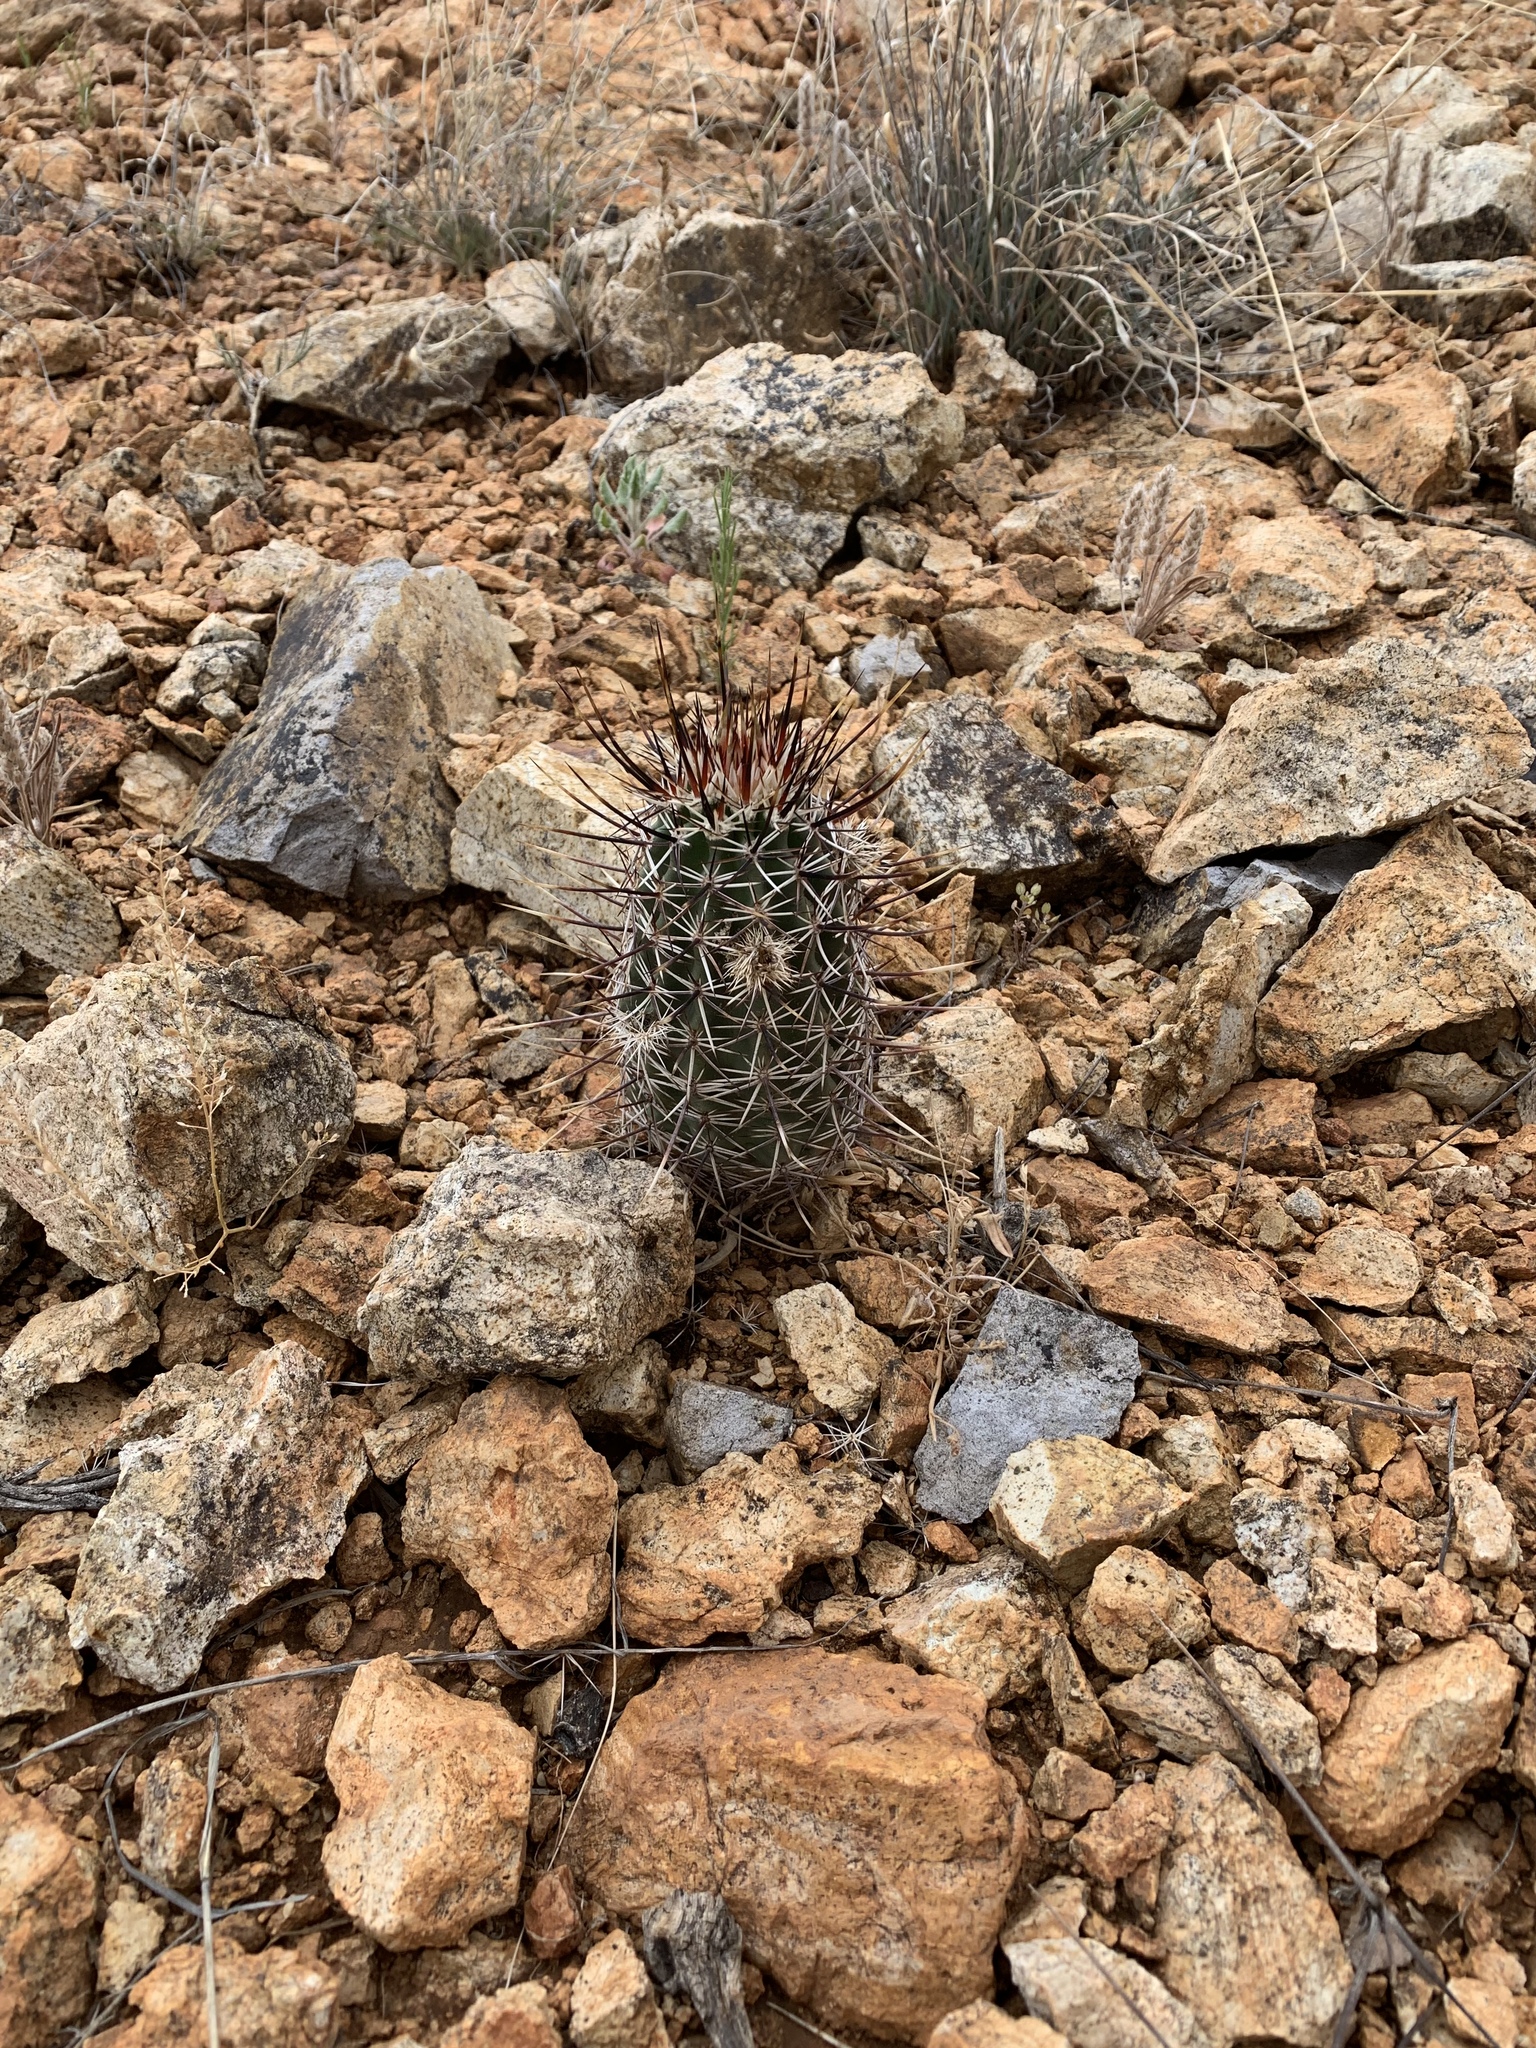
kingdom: Plantae
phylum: Tracheophyta
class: Magnoliopsida
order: Caryophyllales
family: Cactaceae
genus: Echinocereus
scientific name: Echinocereus fendleri
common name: Fendler's hedgehog cactus
